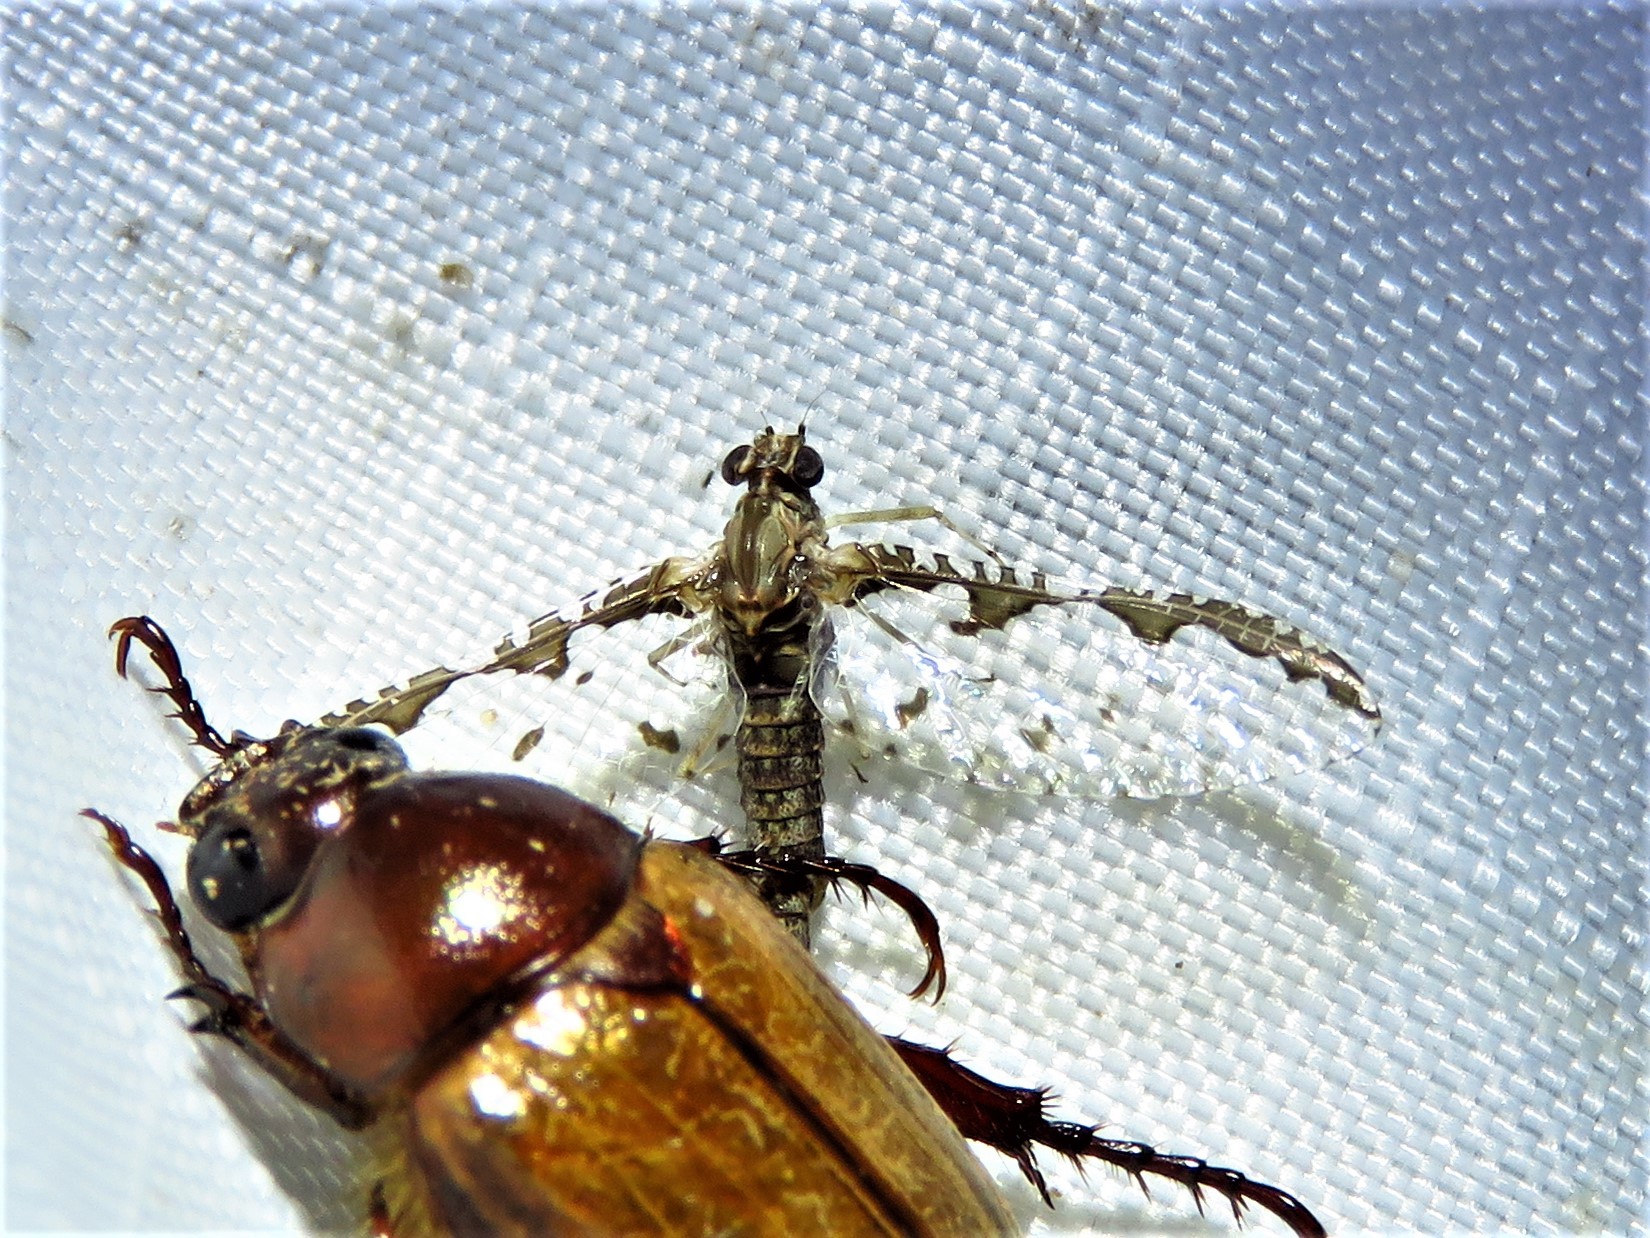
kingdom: Animalia
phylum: Arthropoda
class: Insecta
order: Ephemeroptera
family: Baetidae
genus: Callibaetis
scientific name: Callibaetis pretiosus
